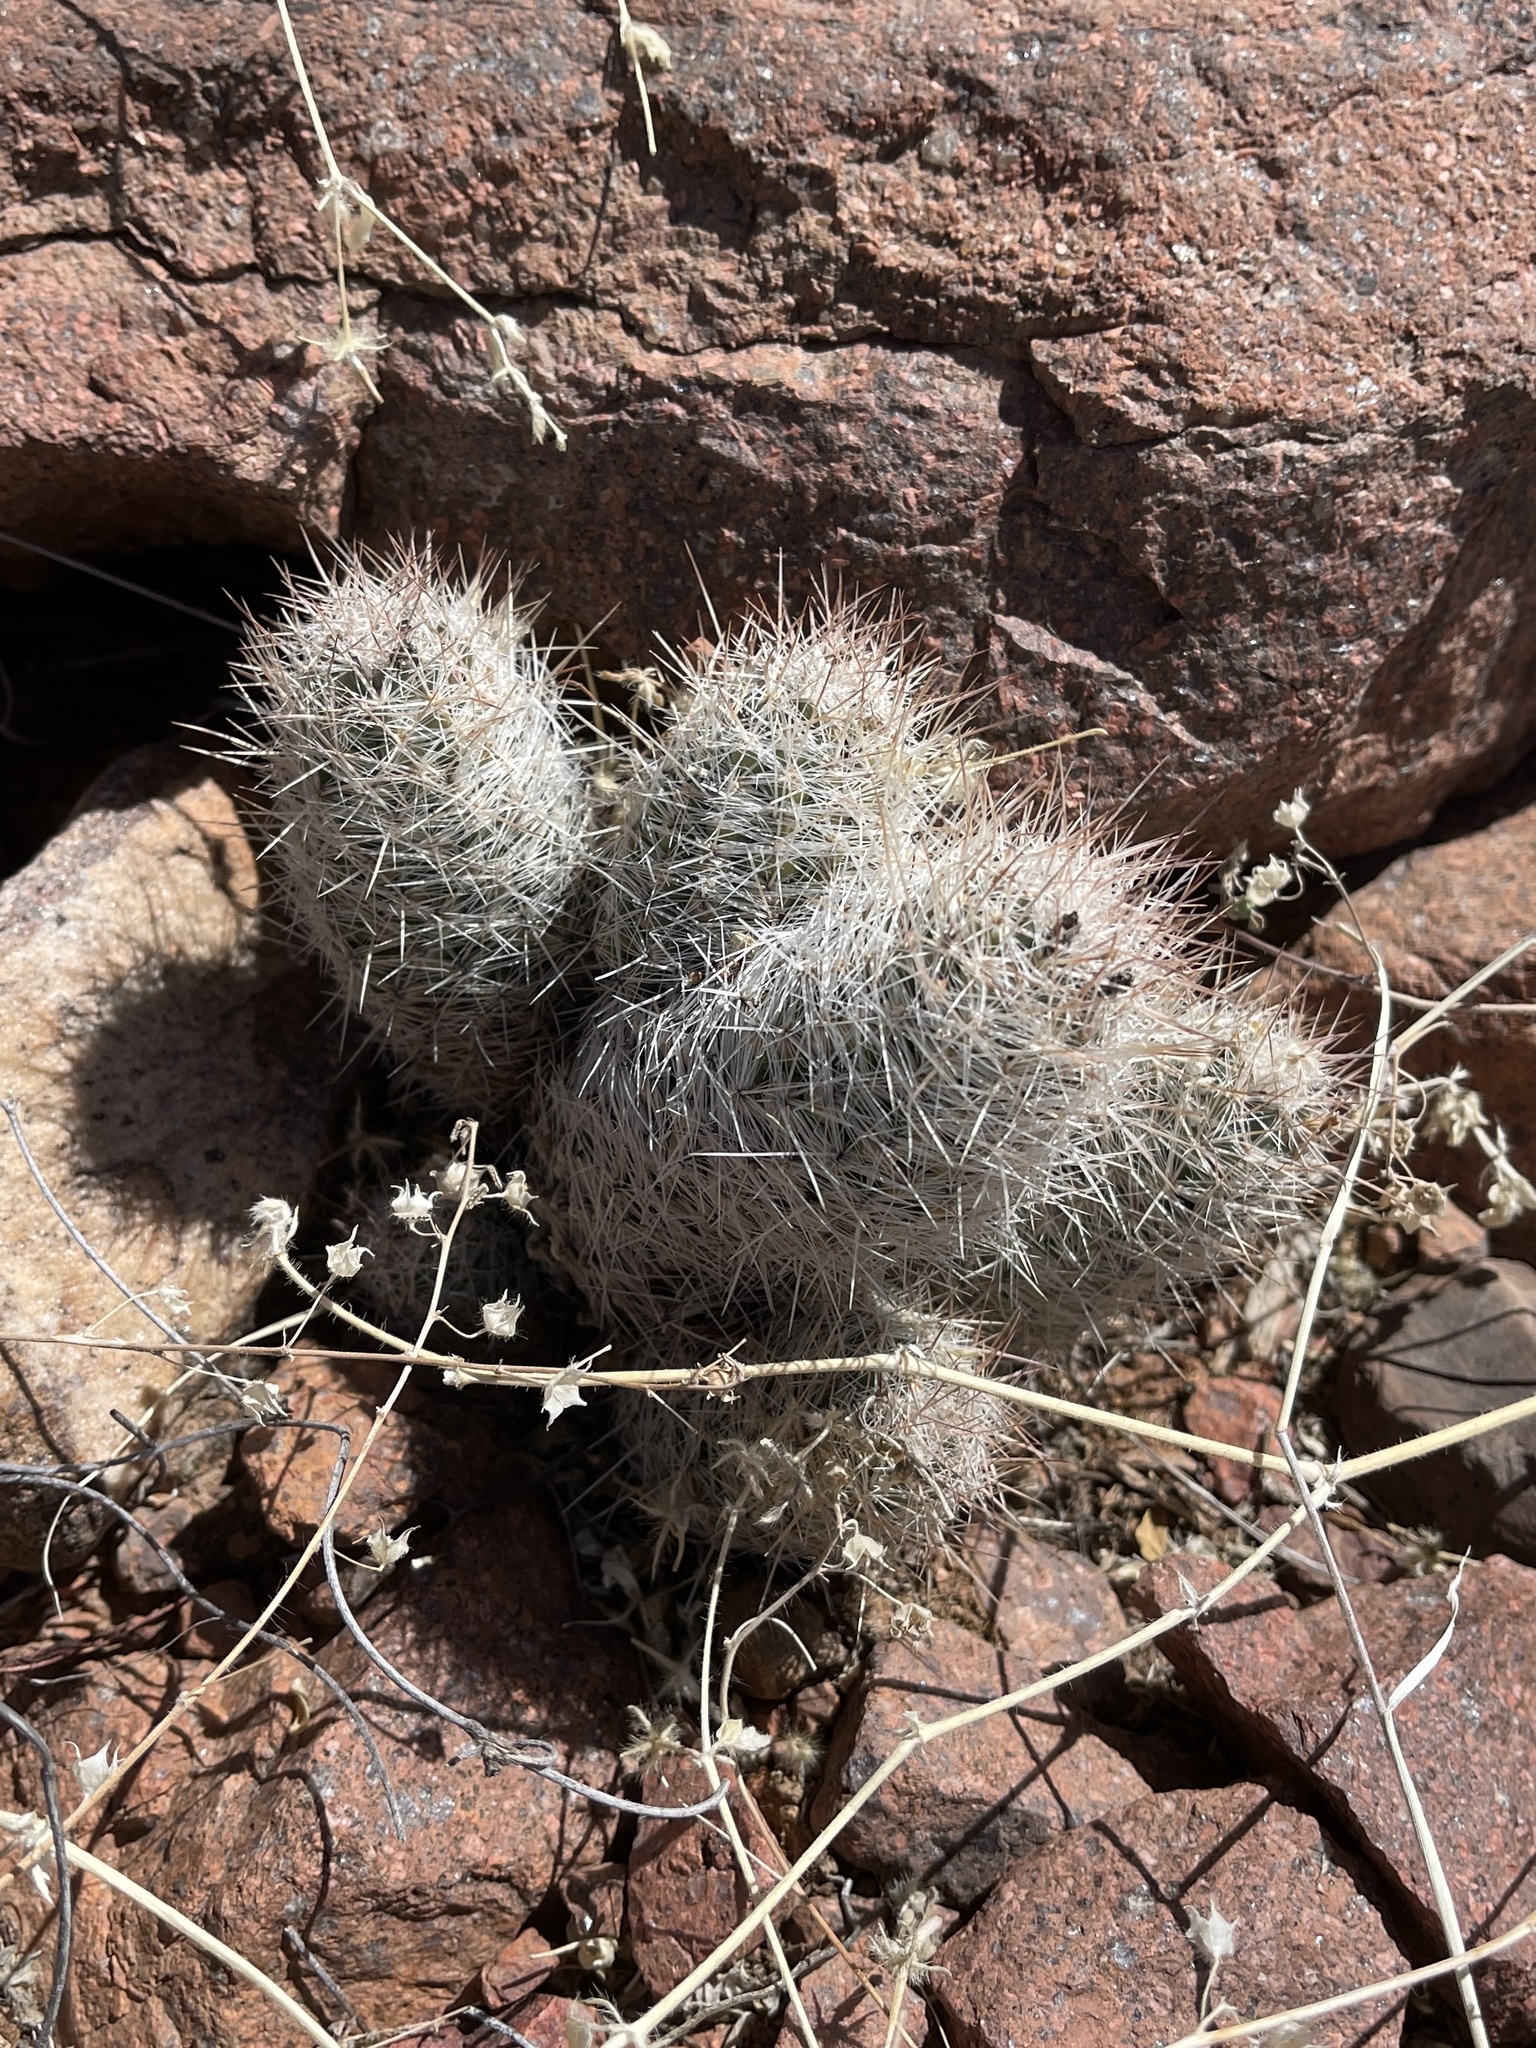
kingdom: Plantae
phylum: Tracheophyta
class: Magnoliopsida
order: Caryophyllales
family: Cactaceae
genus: Pelecyphora
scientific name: Pelecyphora tuberculosa
